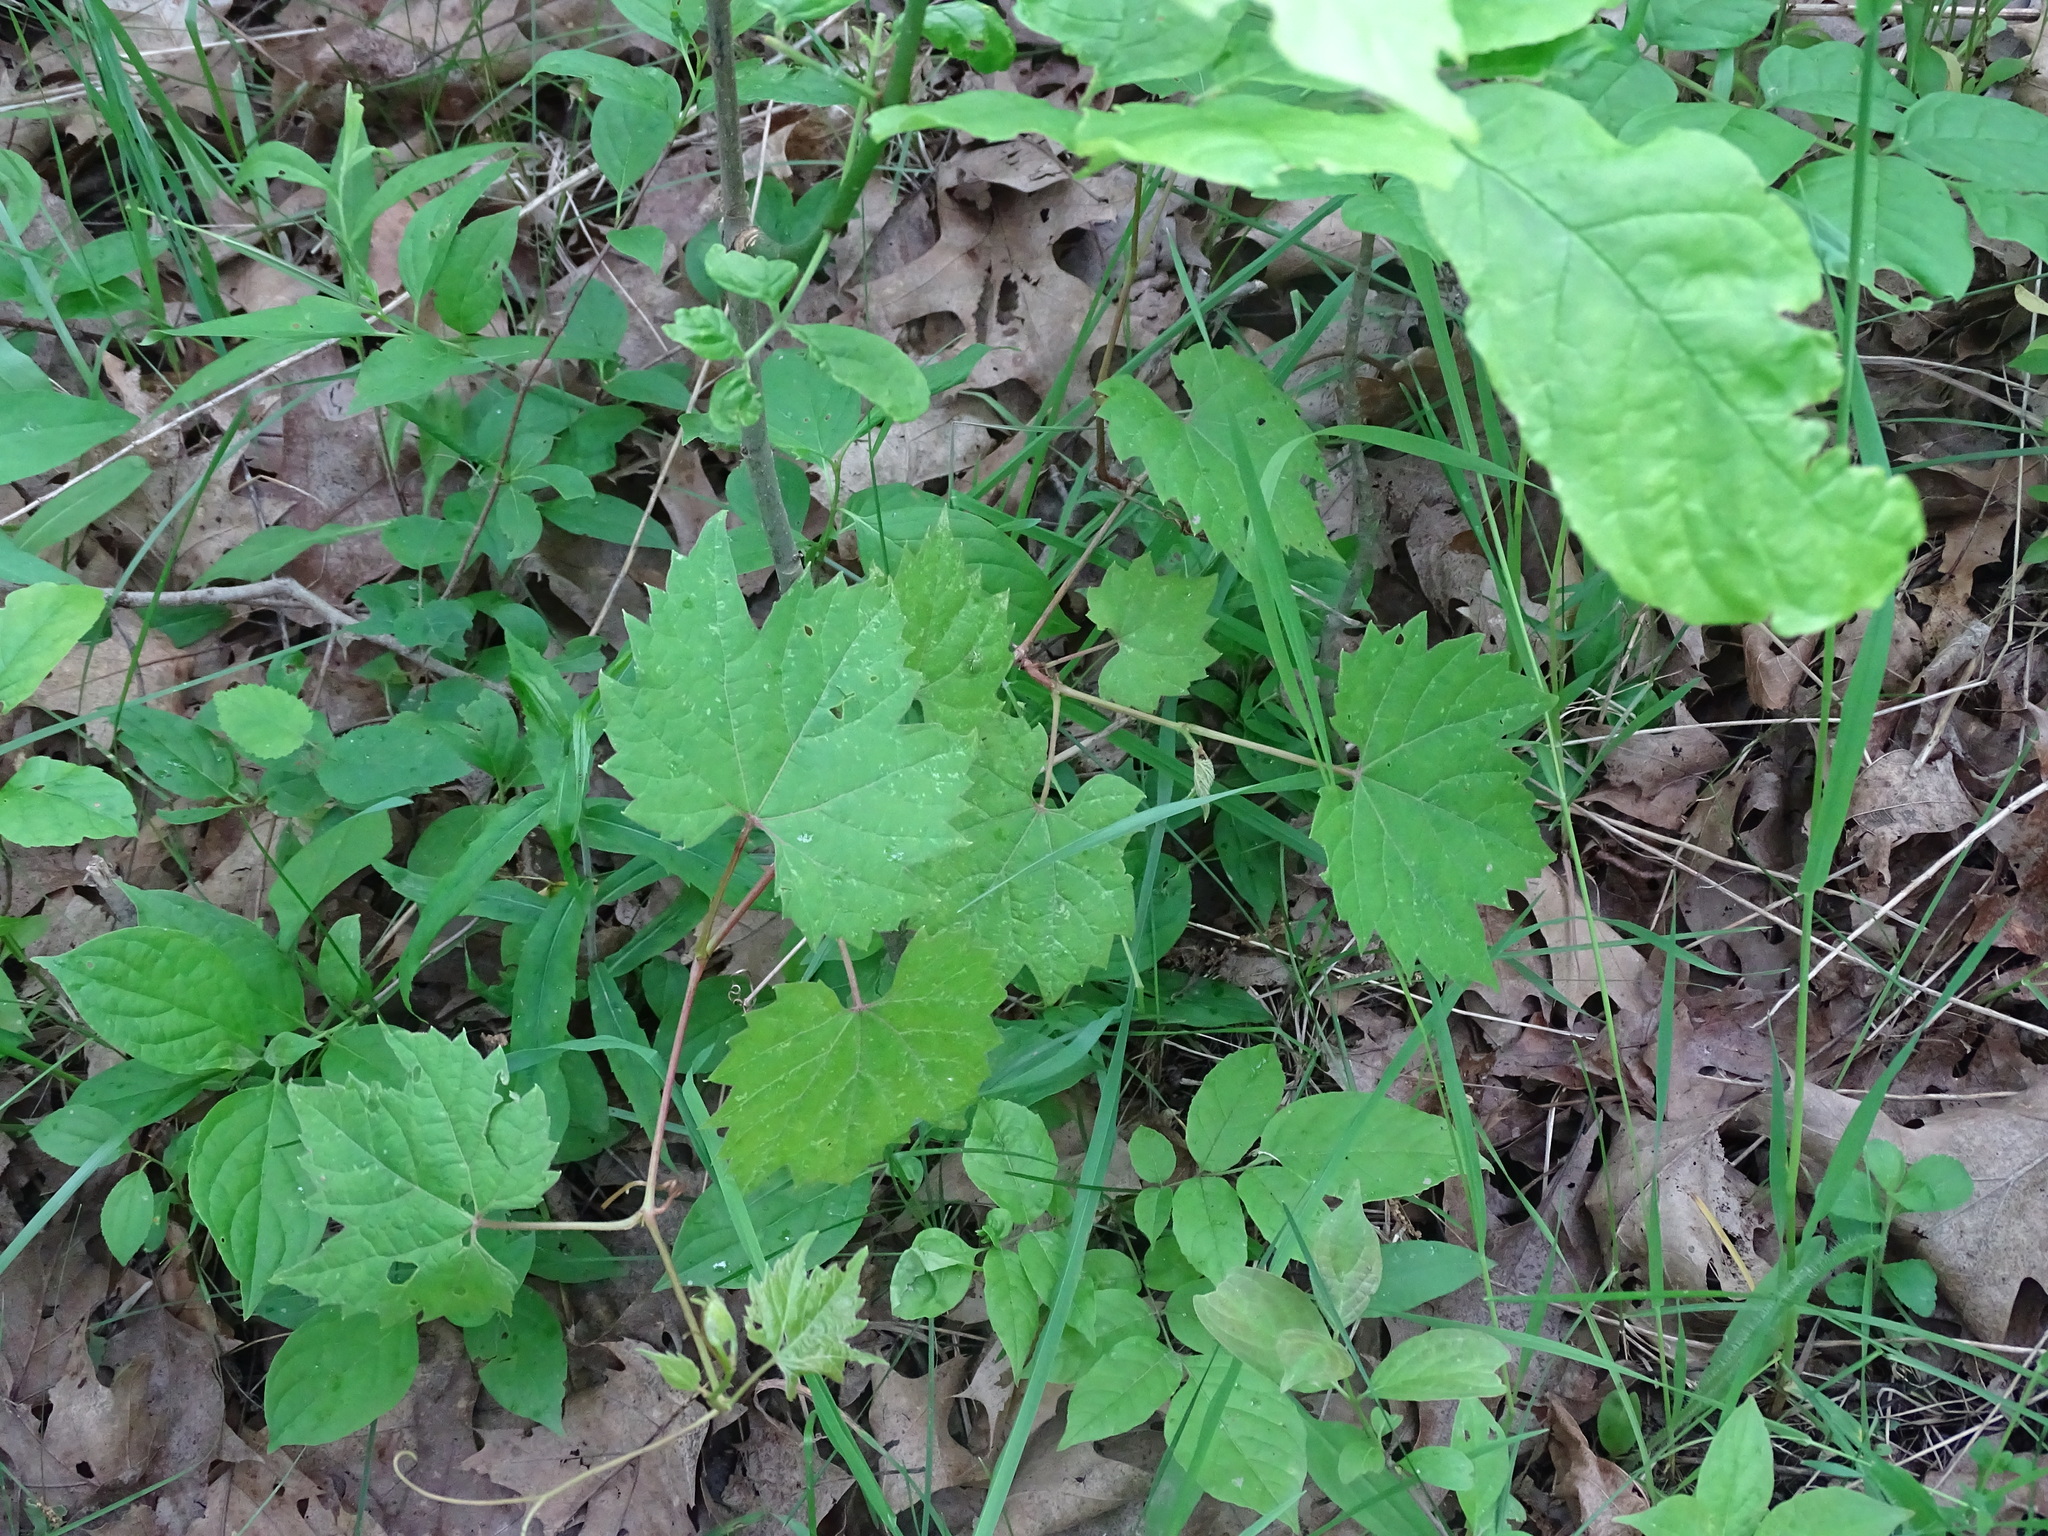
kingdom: Plantae
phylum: Tracheophyta
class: Magnoliopsida
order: Vitales
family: Vitaceae
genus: Vitis
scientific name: Vitis riparia
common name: Frost grape
